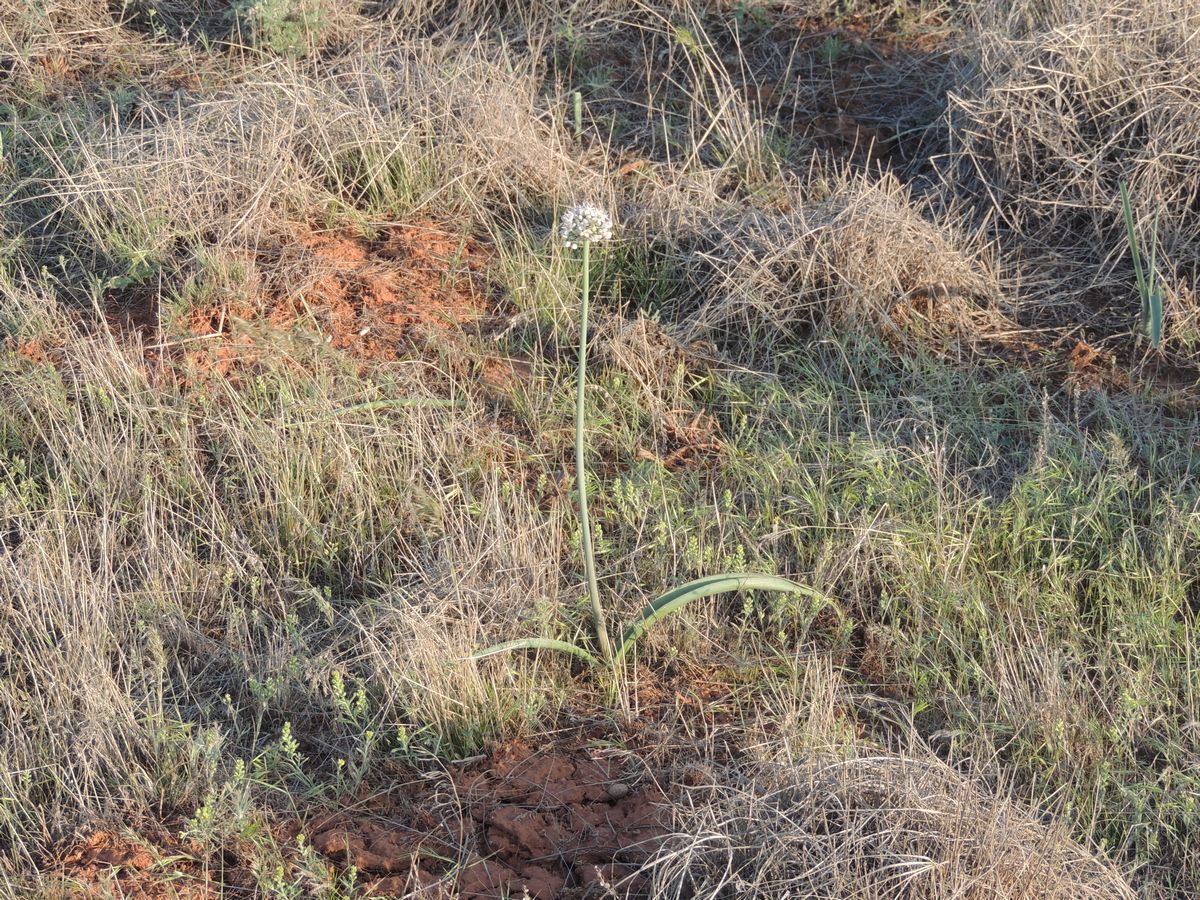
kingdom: Plantae
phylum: Tracheophyta
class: Liliopsida
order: Asparagales
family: Amaryllidaceae
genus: Allium
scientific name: Allium tulipifolium
